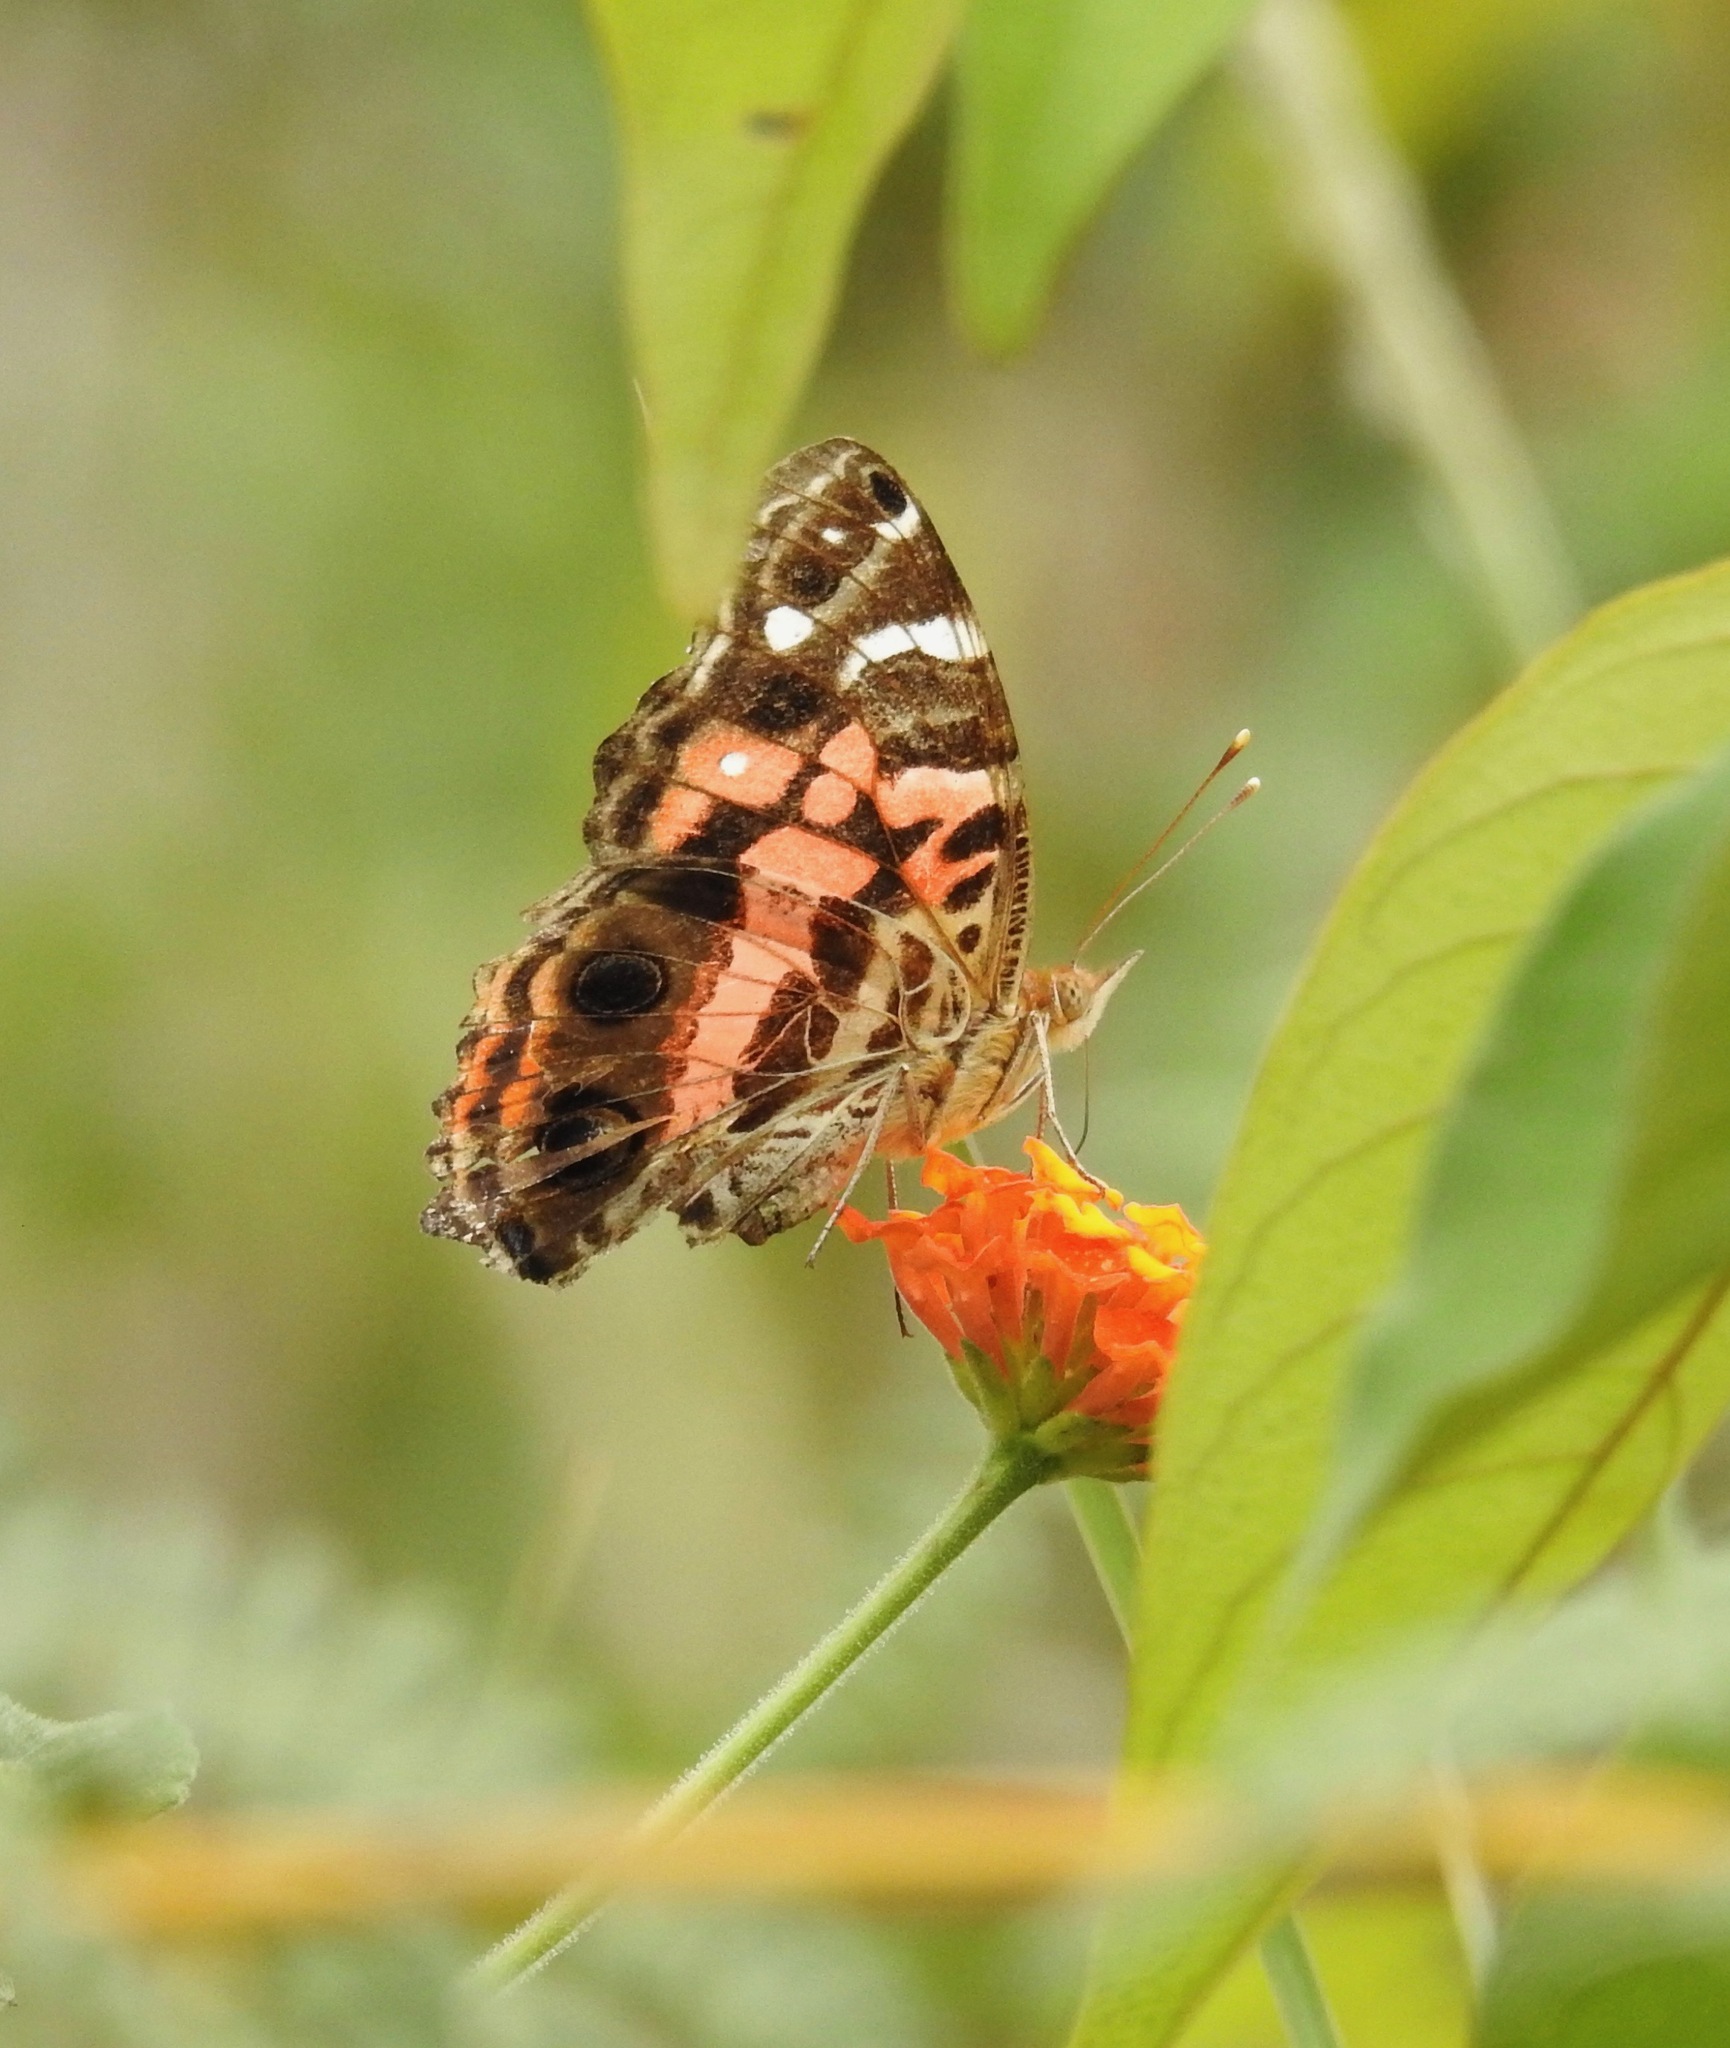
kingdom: Animalia
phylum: Arthropoda
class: Insecta
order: Lepidoptera
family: Nymphalidae
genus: Vanessa
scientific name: Vanessa myrinna
